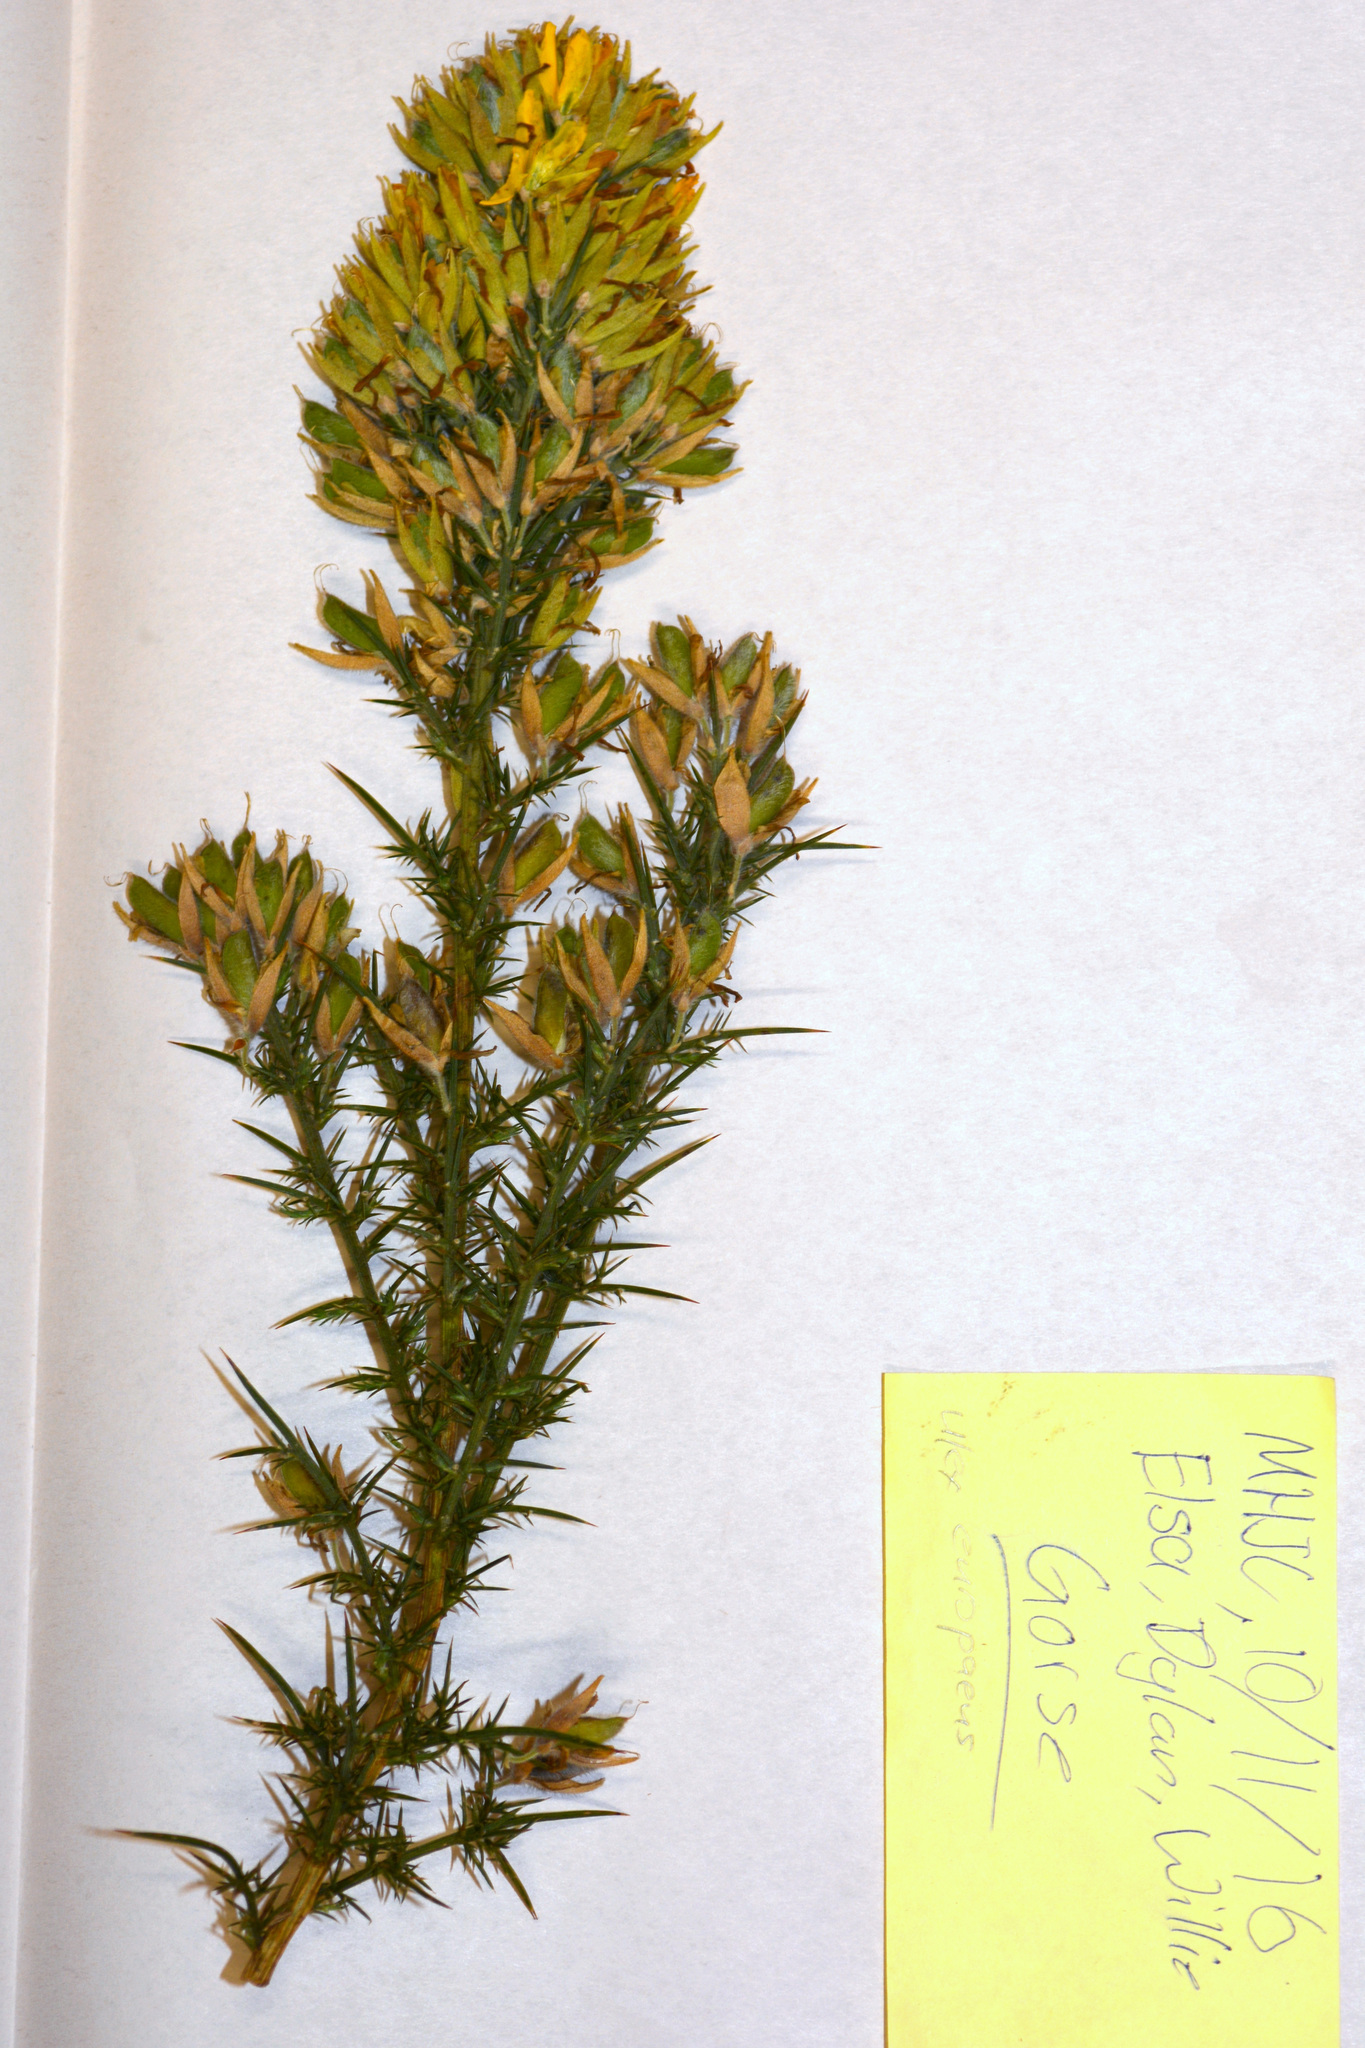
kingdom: Plantae
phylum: Tracheophyta
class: Magnoliopsida
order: Fabales
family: Fabaceae
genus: Ulex
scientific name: Ulex europaeus
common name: Common gorse
